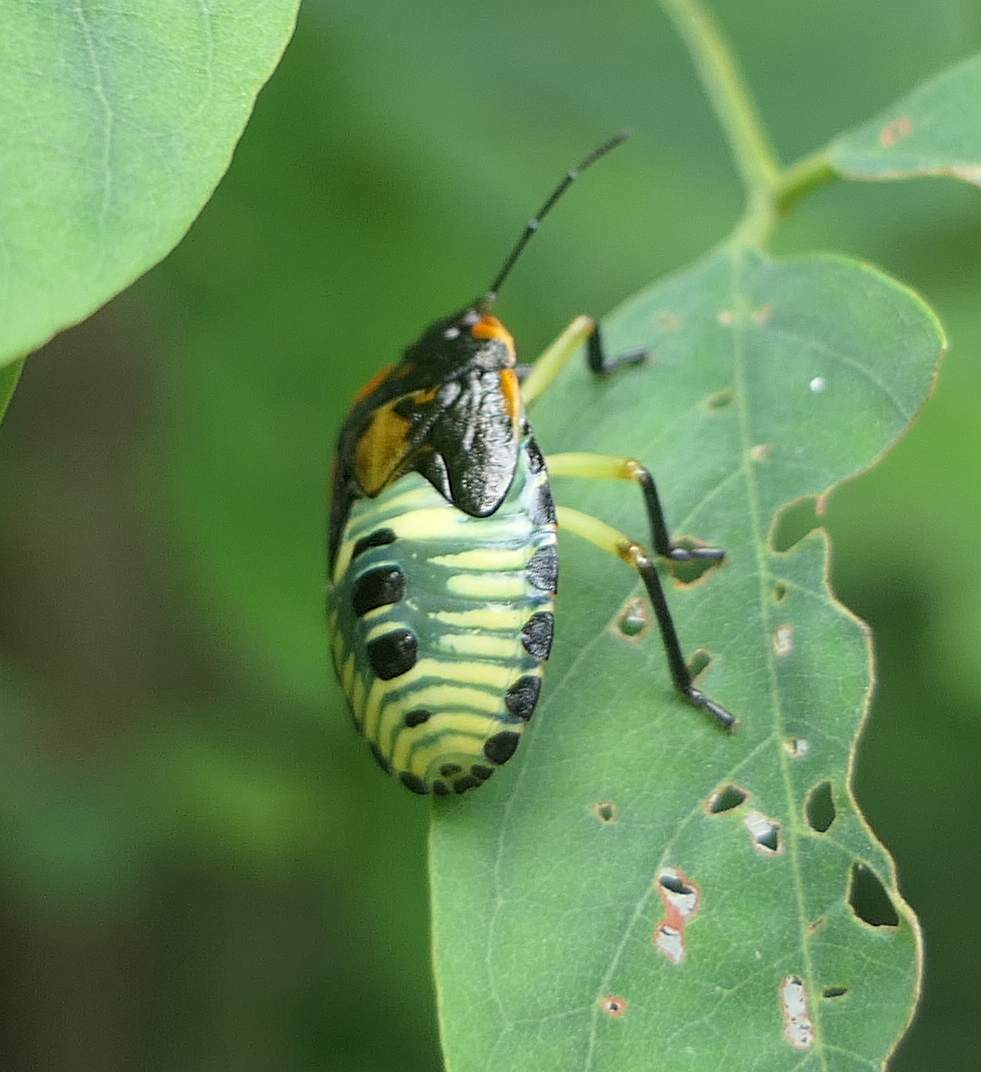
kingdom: Animalia
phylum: Arthropoda
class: Insecta
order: Hemiptera
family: Pentatomidae
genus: Chinavia
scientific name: Chinavia hilaris
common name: Green stink bug
